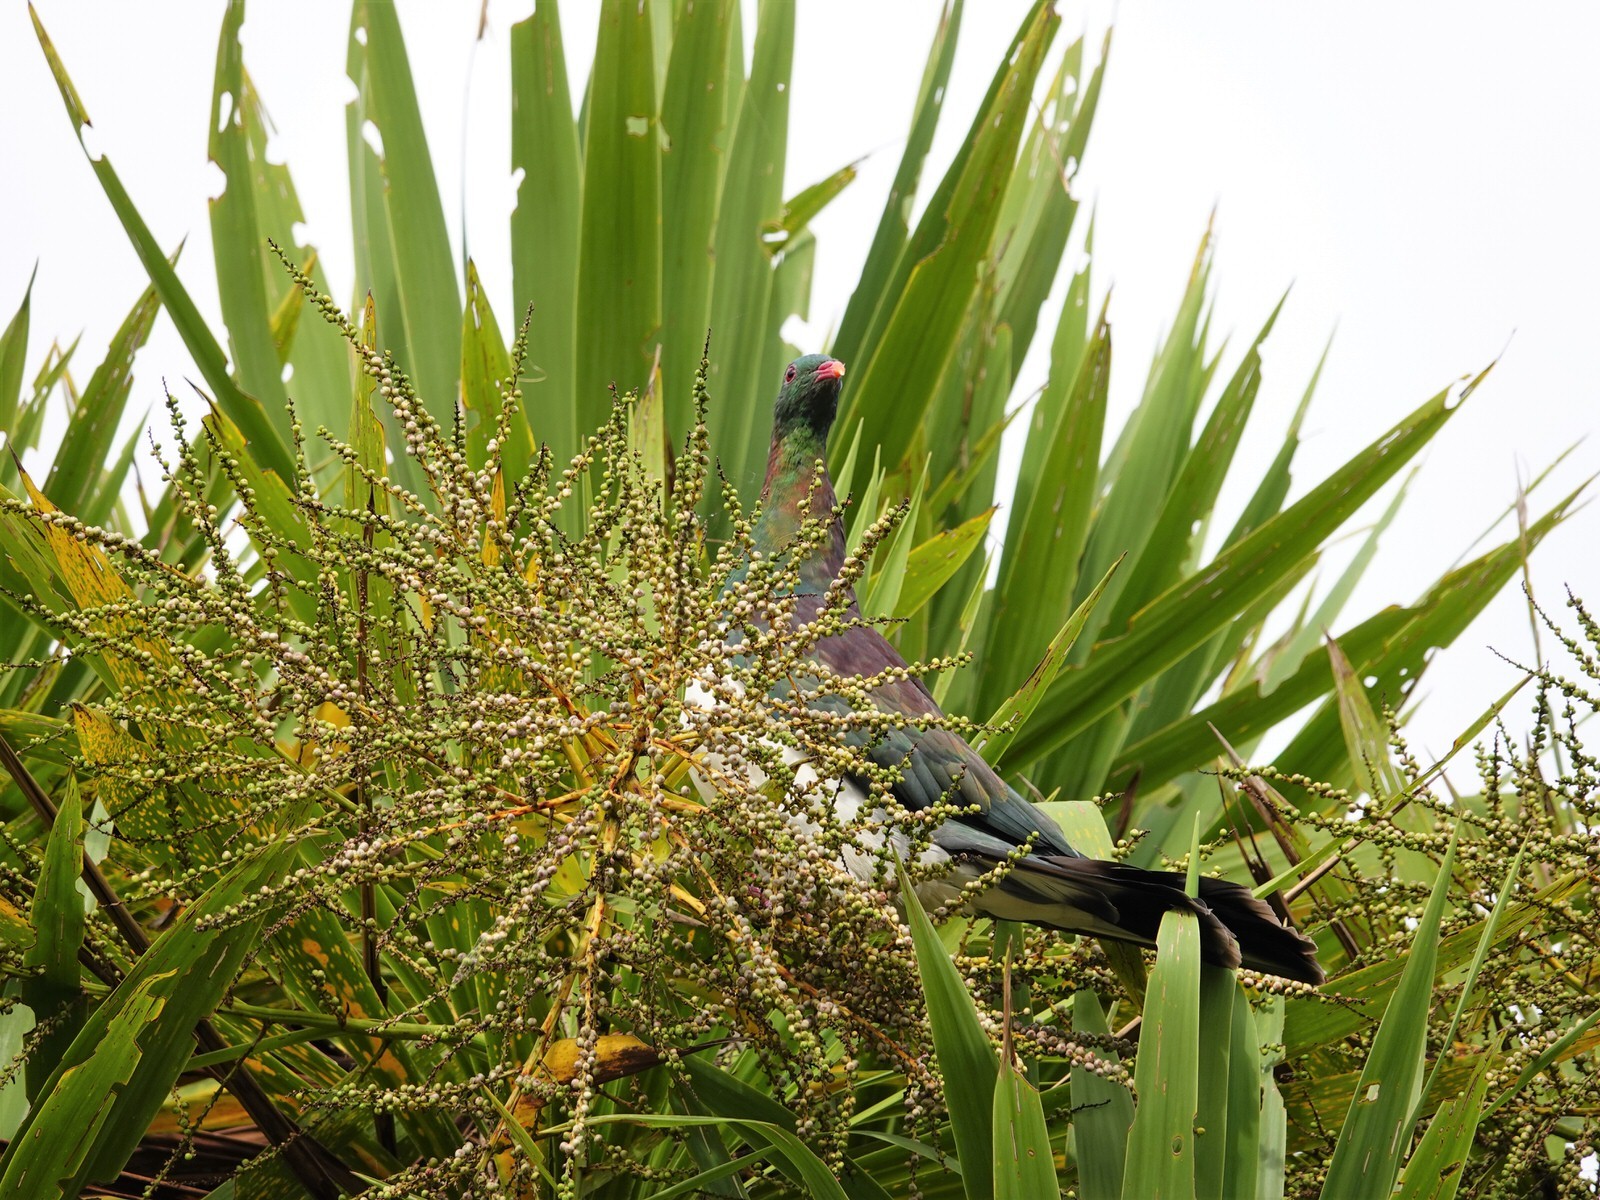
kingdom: Animalia
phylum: Chordata
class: Aves
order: Columbiformes
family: Columbidae
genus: Hemiphaga
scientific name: Hemiphaga novaeseelandiae
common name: New zealand pigeon
